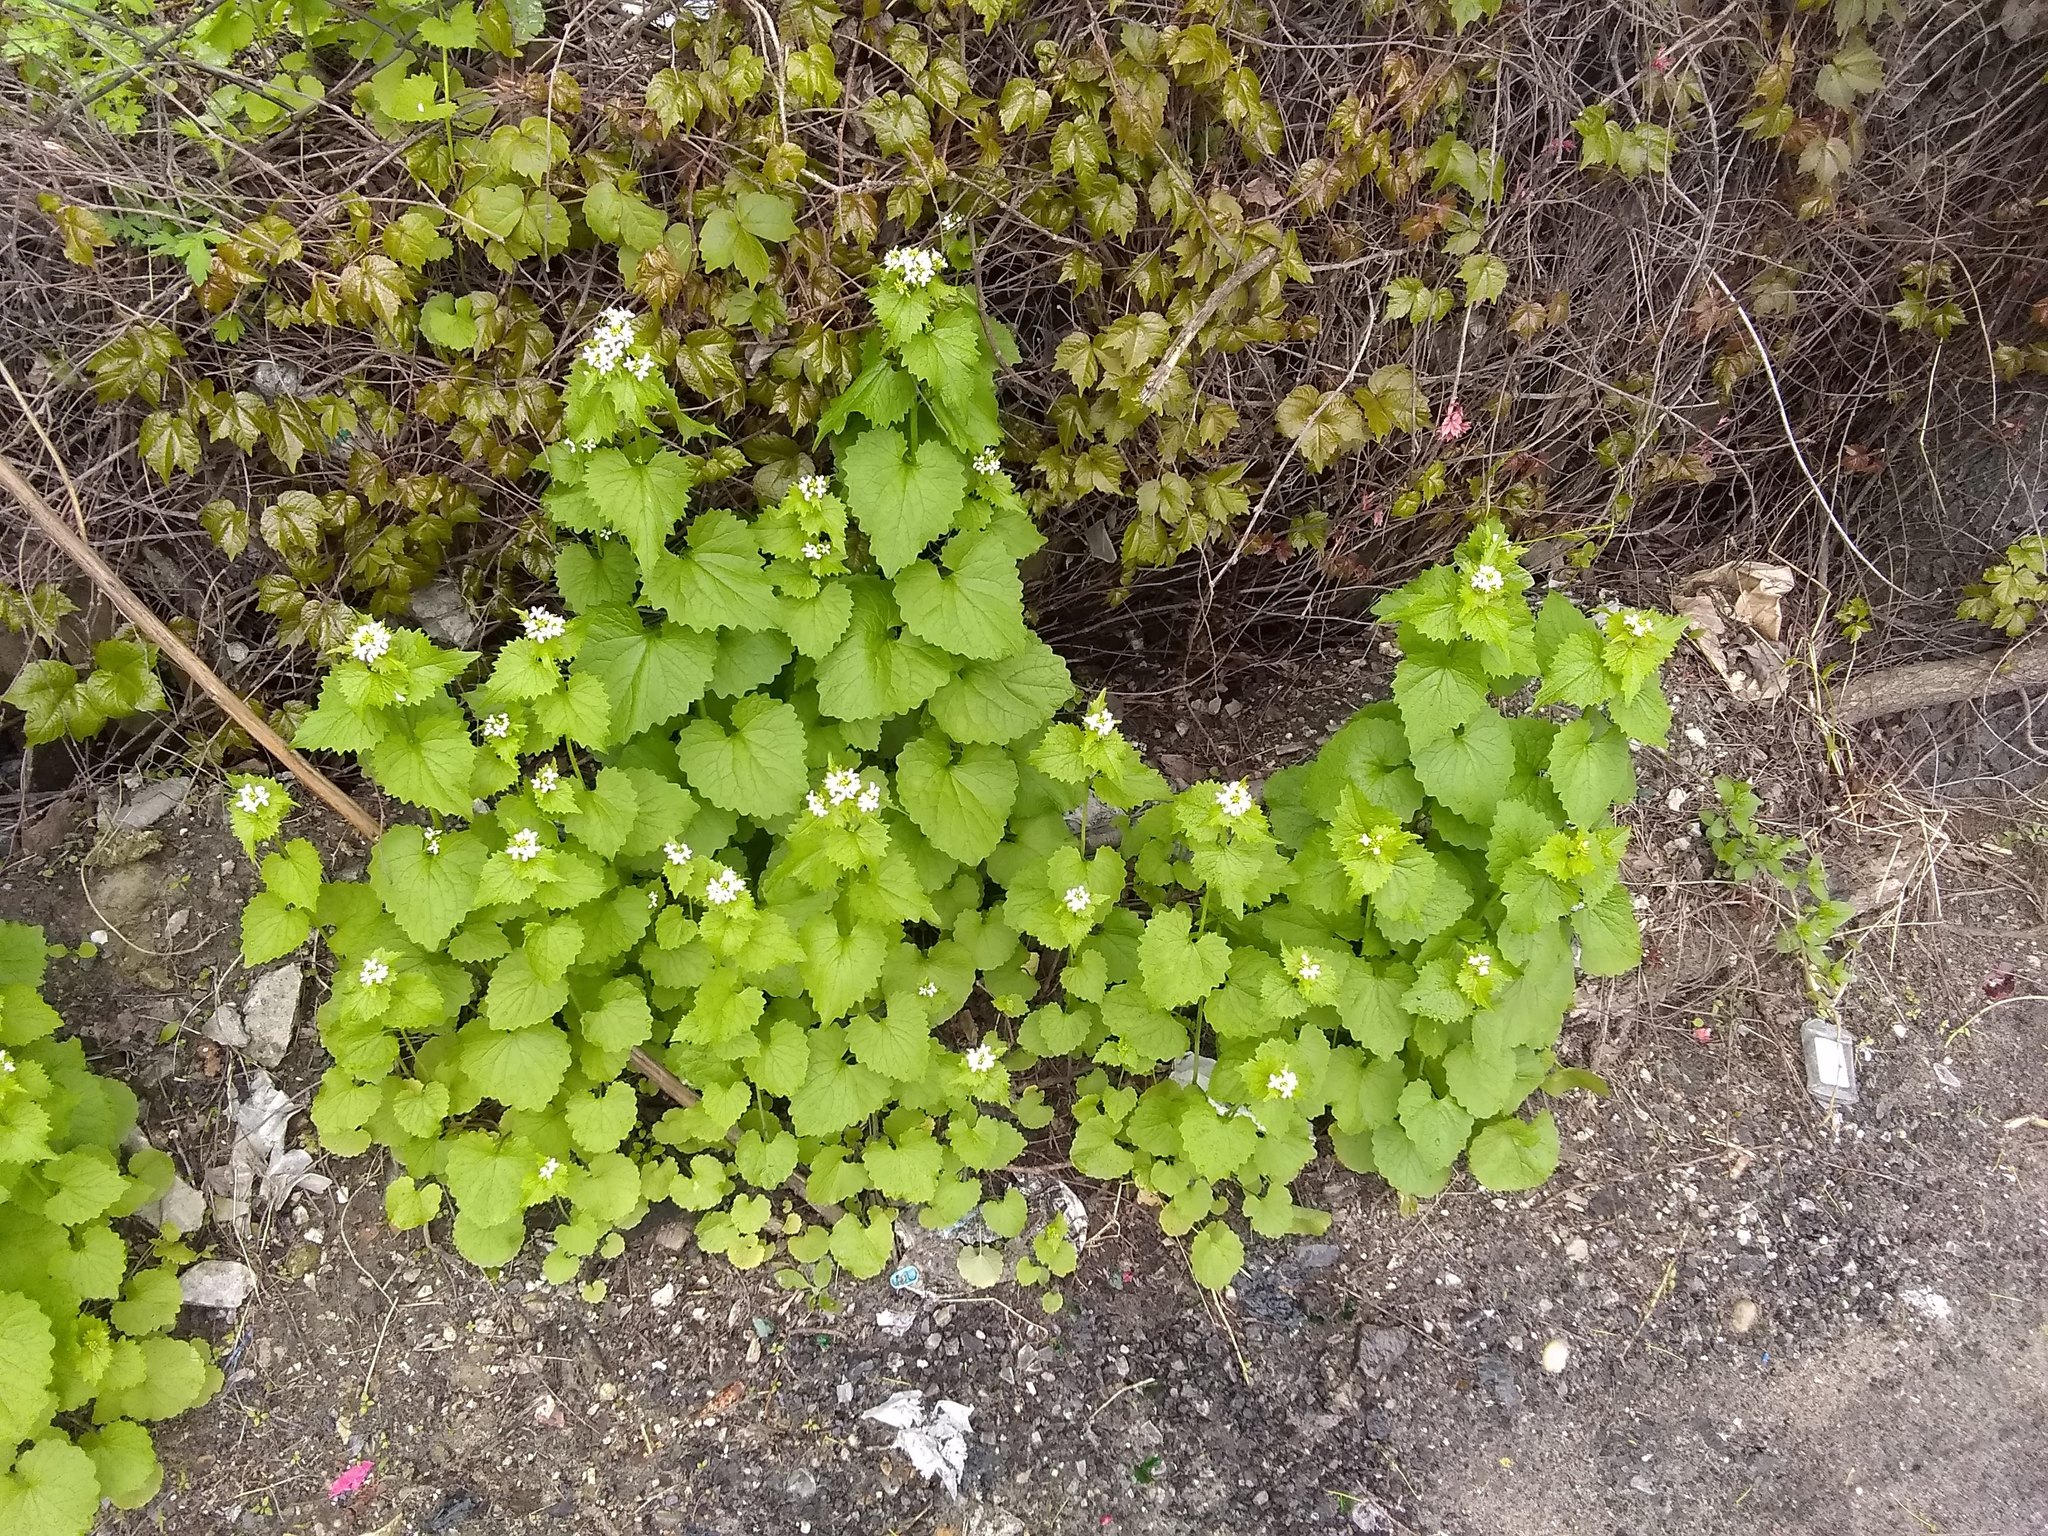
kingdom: Plantae
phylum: Tracheophyta
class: Magnoliopsida
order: Brassicales
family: Brassicaceae
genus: Alliaria
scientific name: Alliaria petiolata
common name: Garlic mustard
